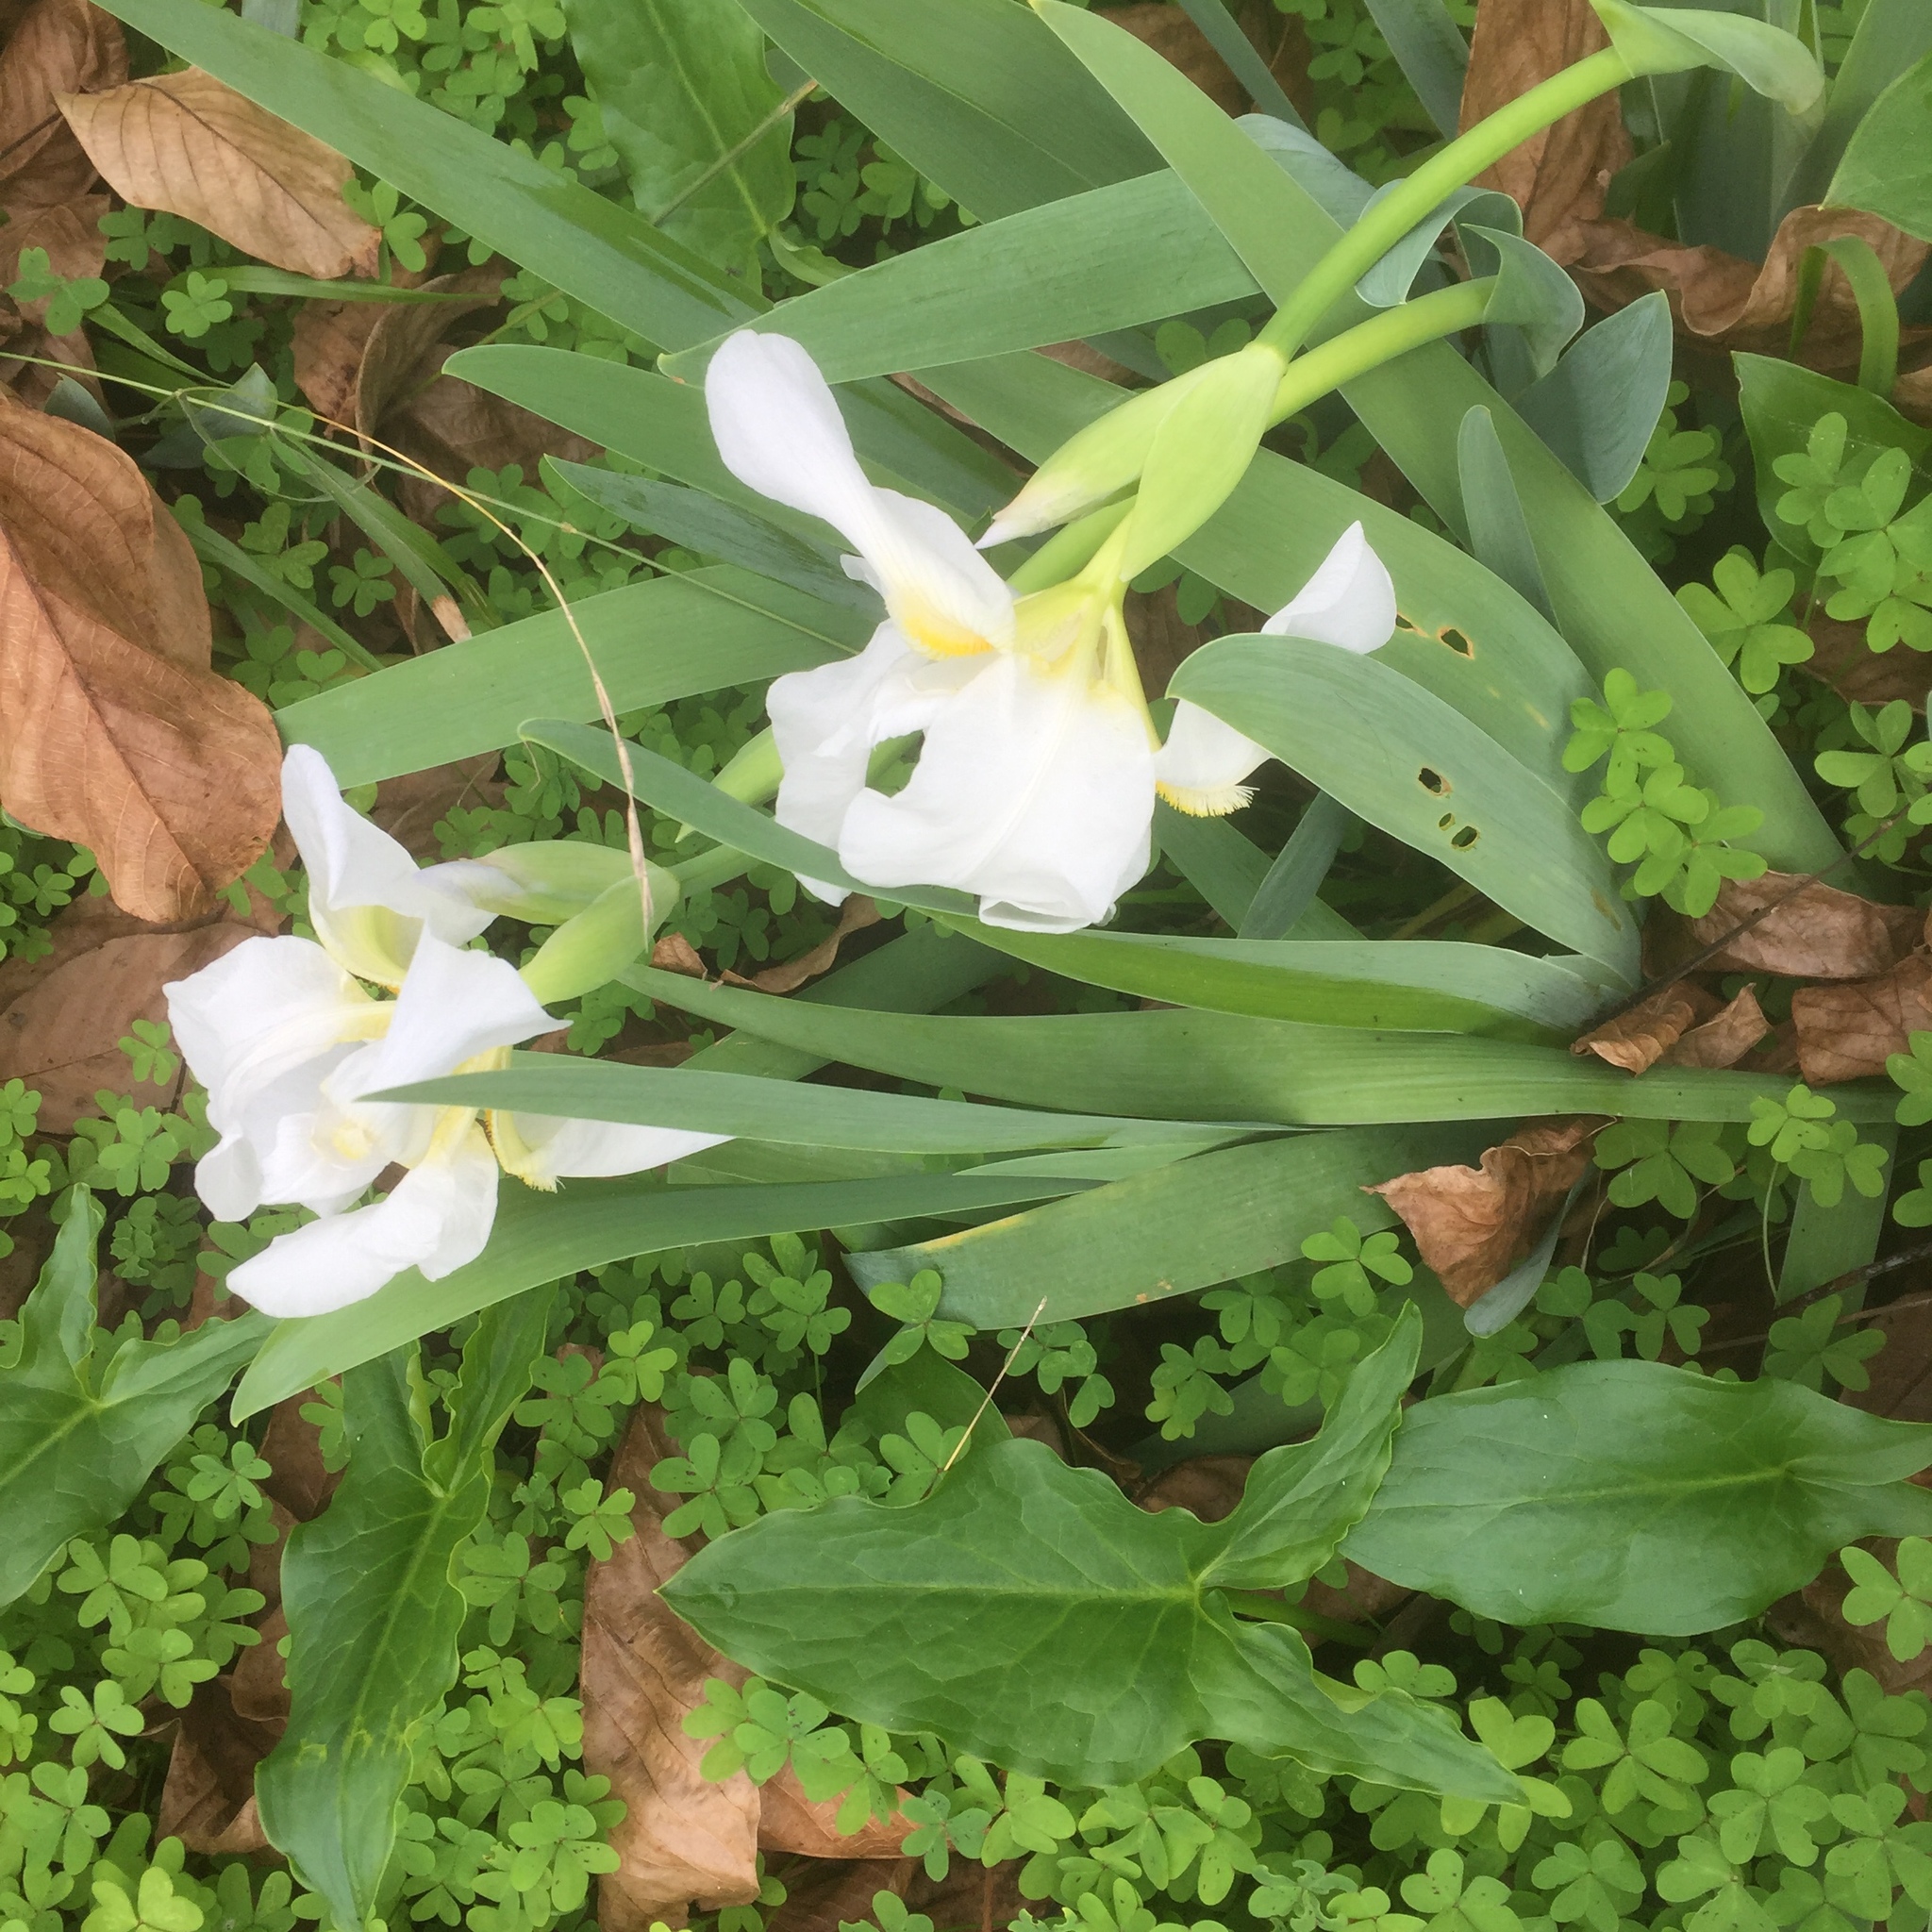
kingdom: Plantae
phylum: Tracheophyta
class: Liliopsida
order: Asparagales
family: Iridaceae
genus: Iris
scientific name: Iris florentina
